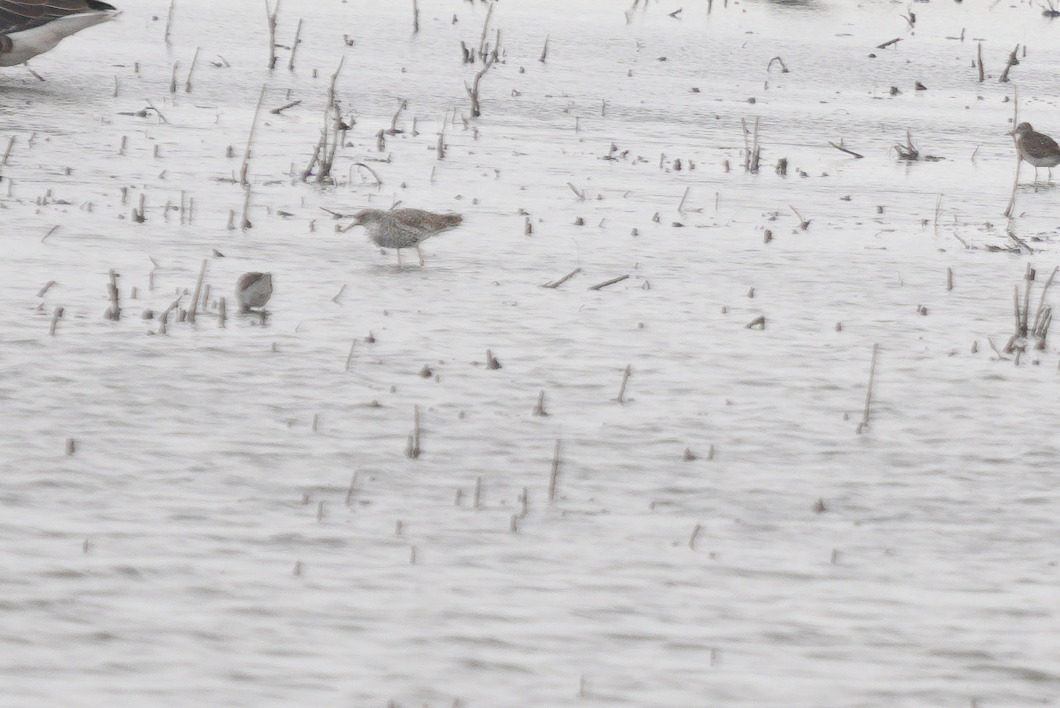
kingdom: Animalia
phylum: Chordata
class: Aves
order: Charadriiformes
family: Scolopacidae
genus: Calidris
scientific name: Calidris pugnax
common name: Ruff
